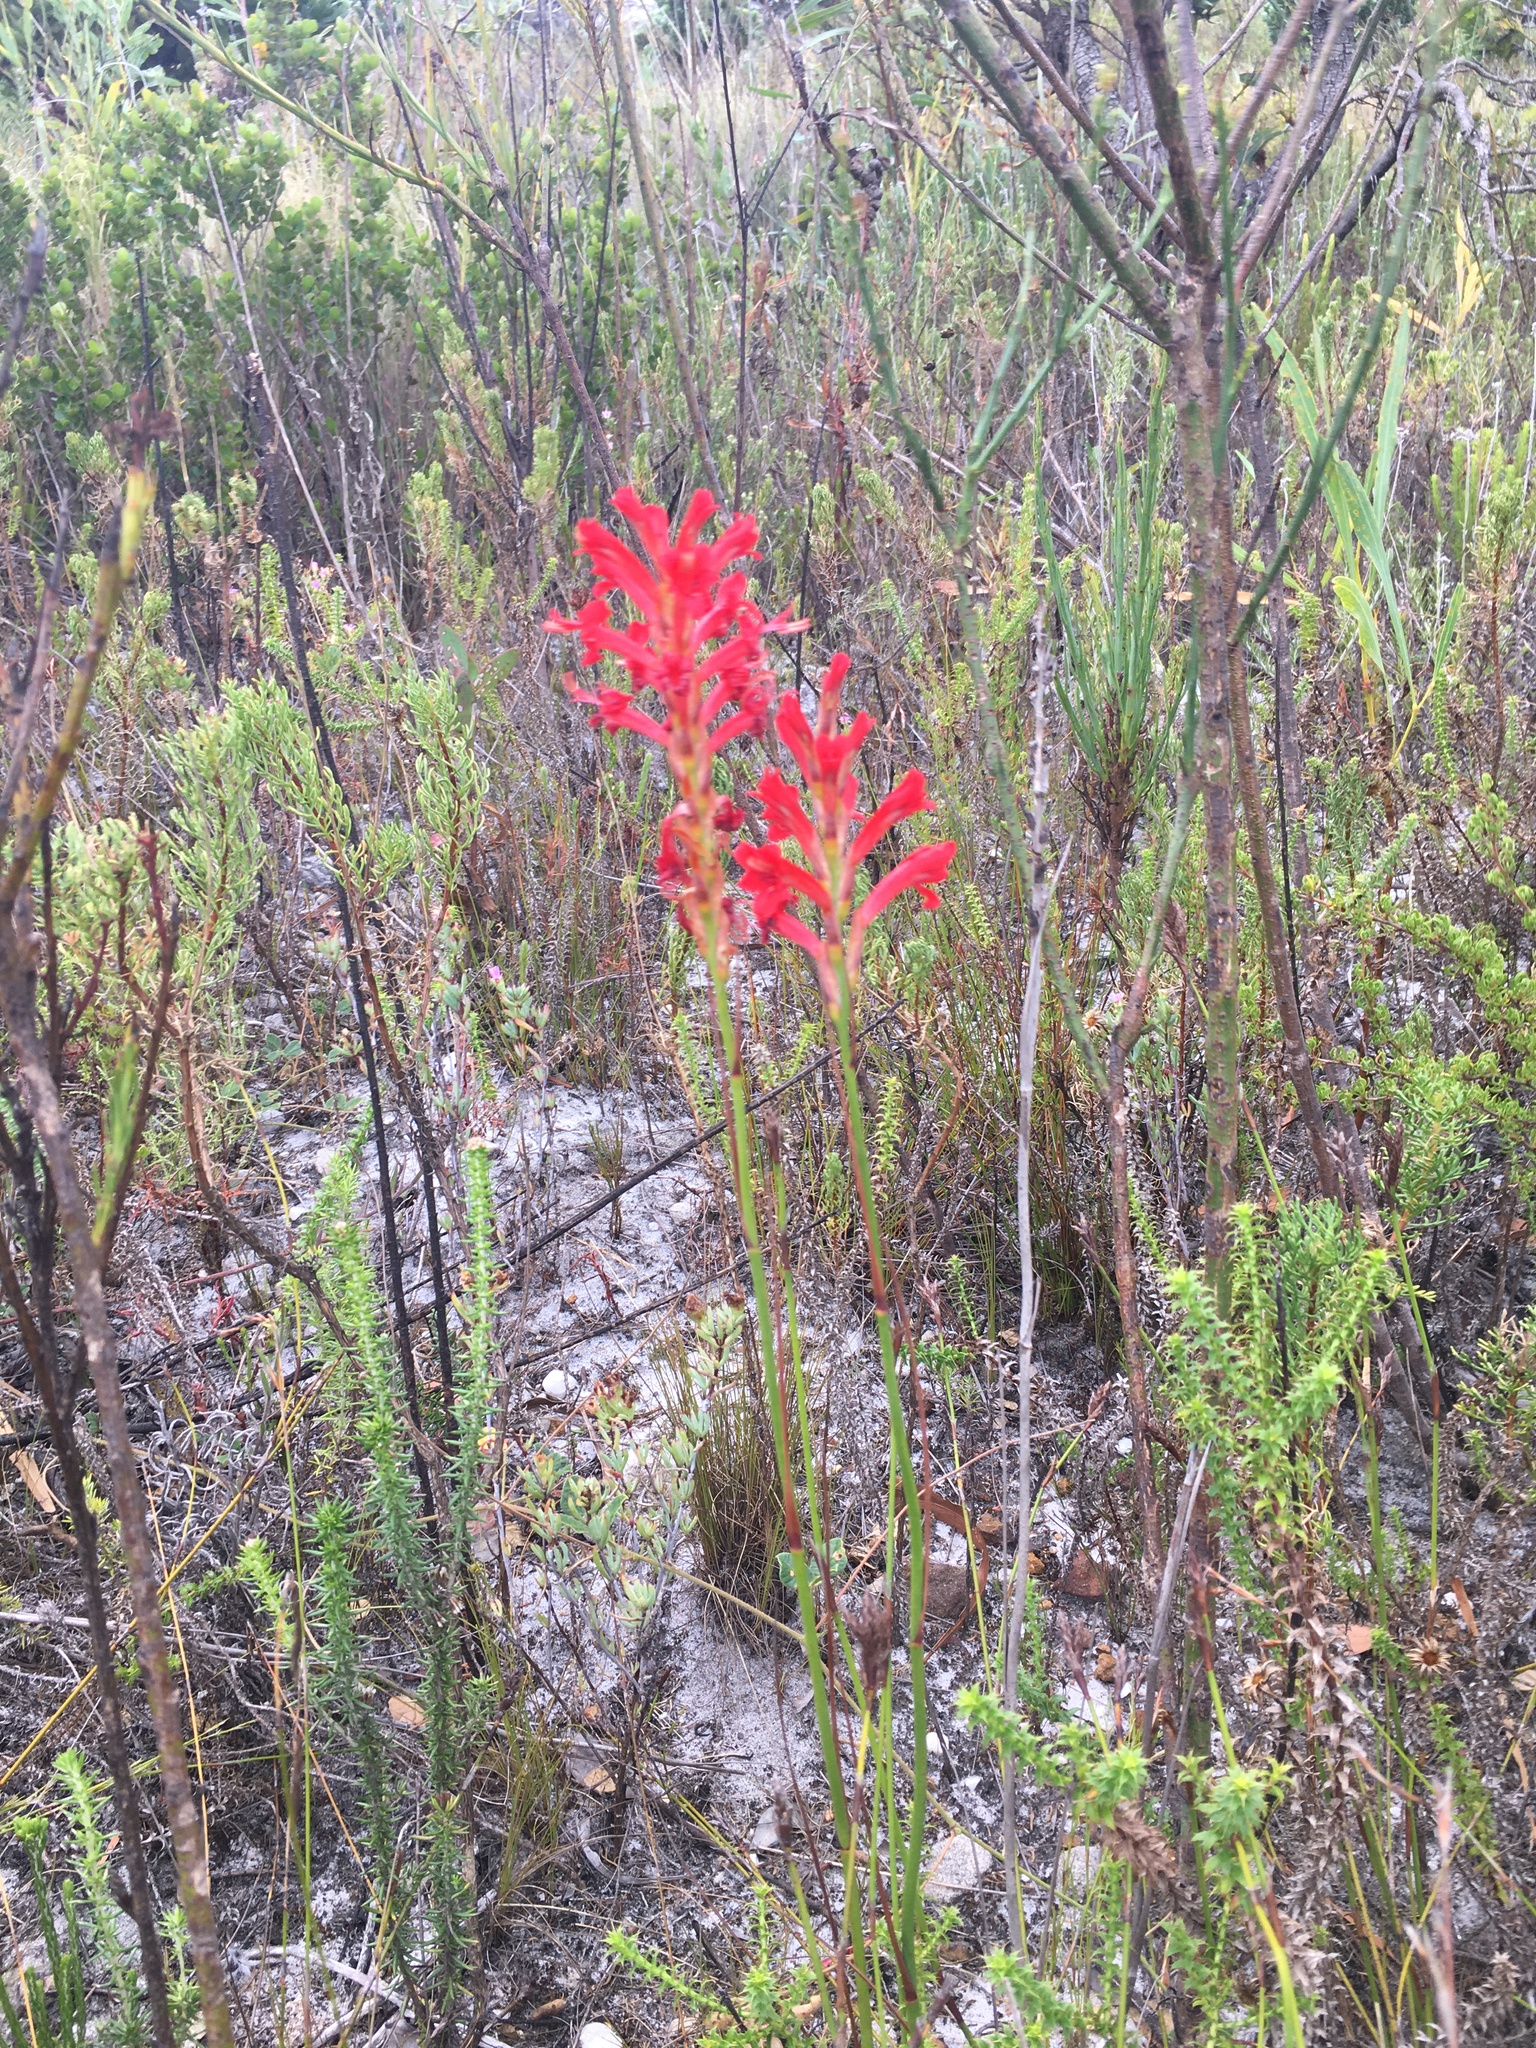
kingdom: Plantae
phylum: Tracheophyta
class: Liliopsida
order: Asparagales
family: Iridaceae
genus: Tritoniopsis
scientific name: Tritoniopsis triticea
